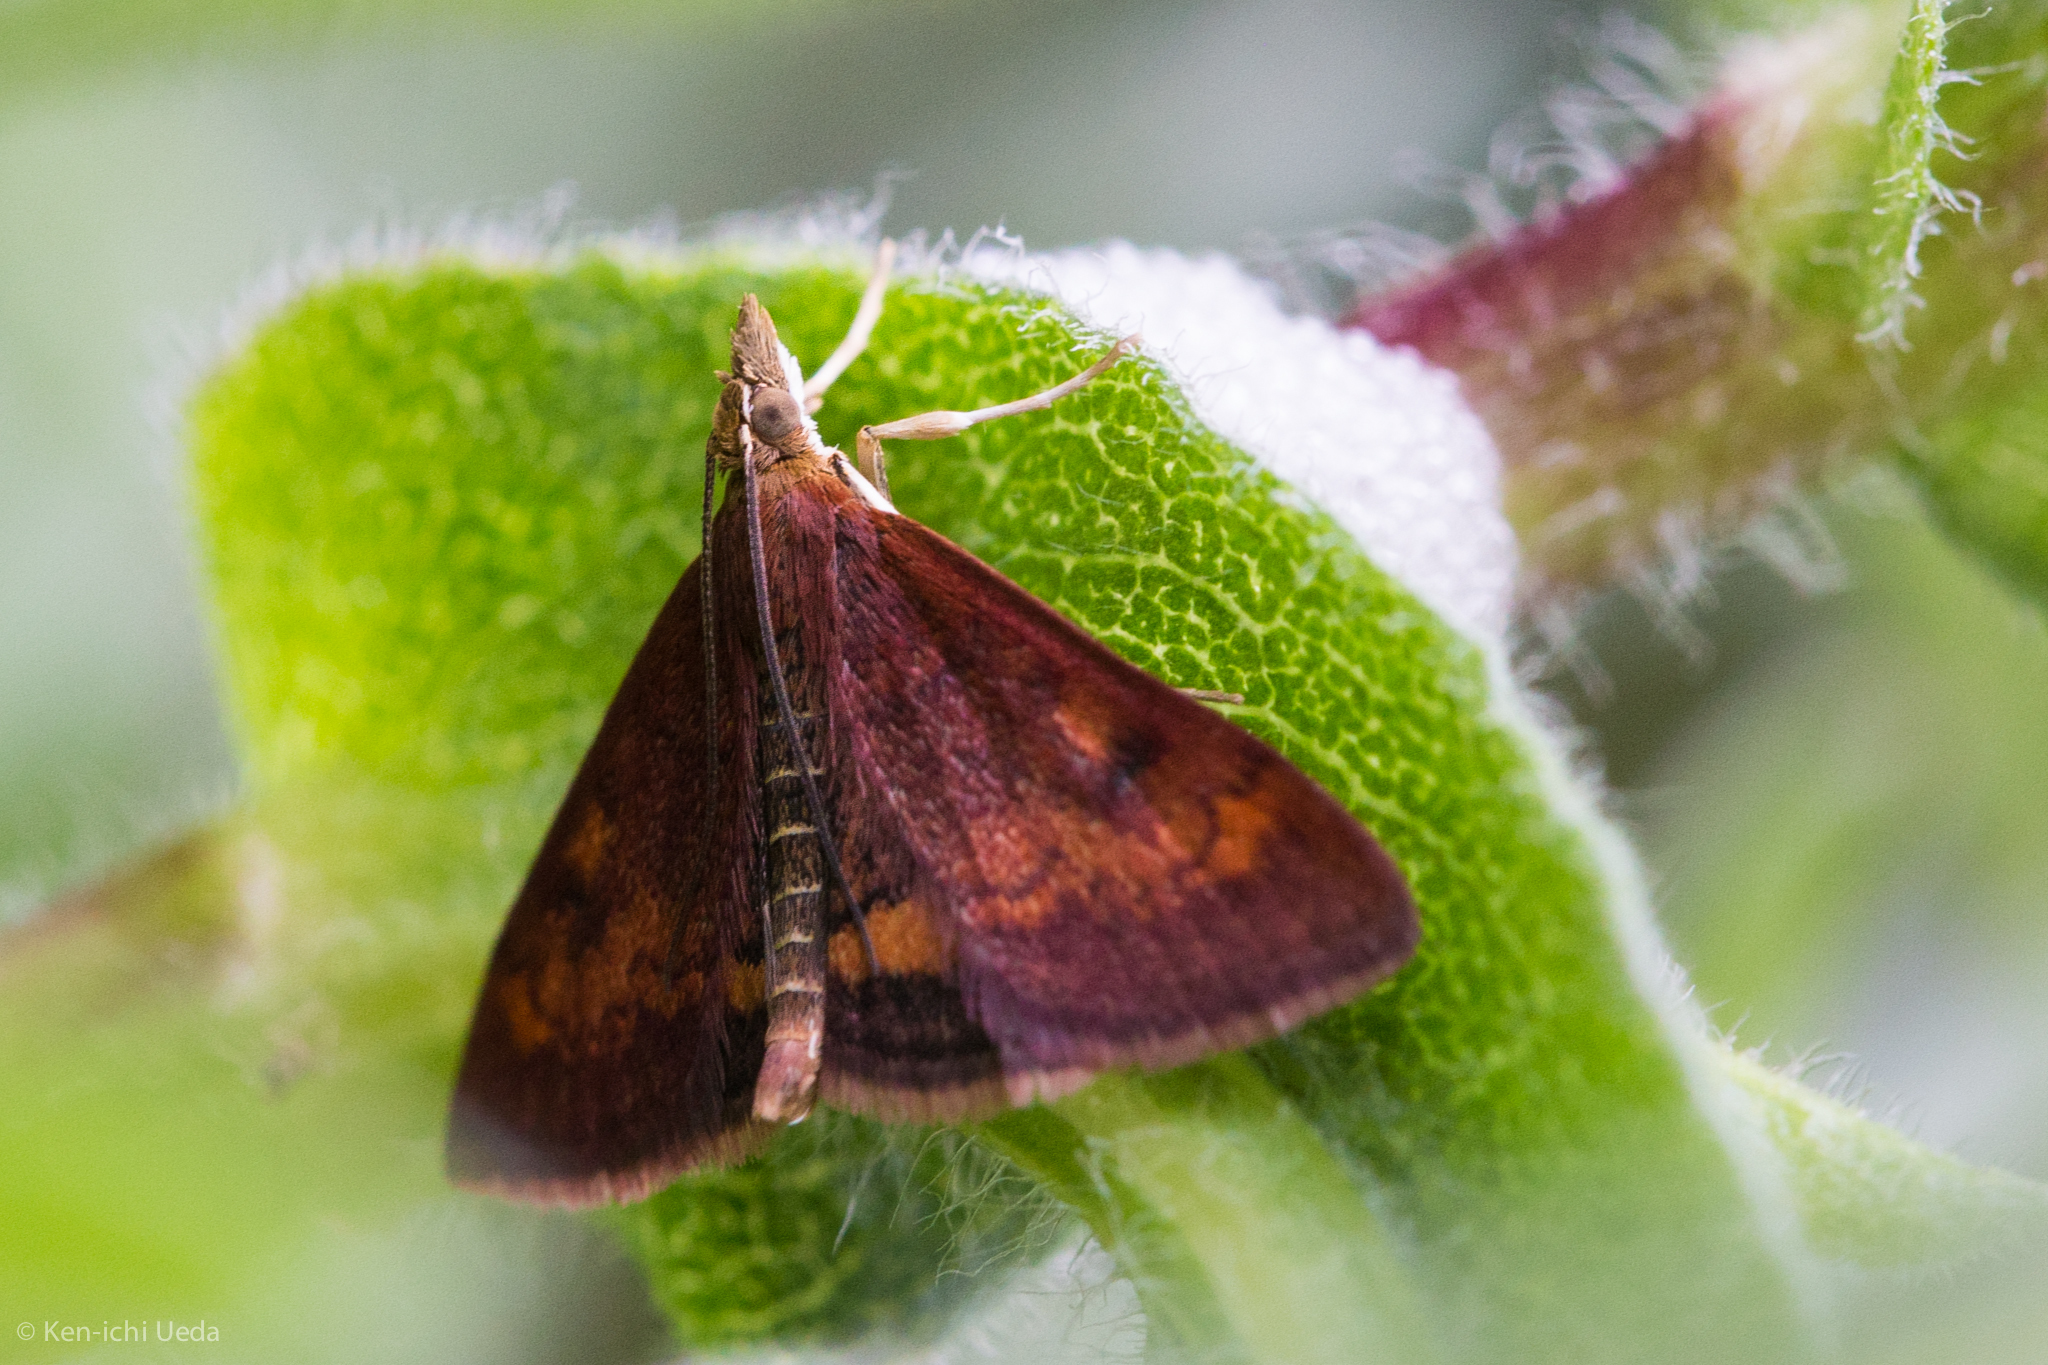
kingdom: Animalia
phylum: Arthropoda
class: Insecta
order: Lepidoptera
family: Crambidae
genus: Pyrausta
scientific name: Pyrausta californicalis
